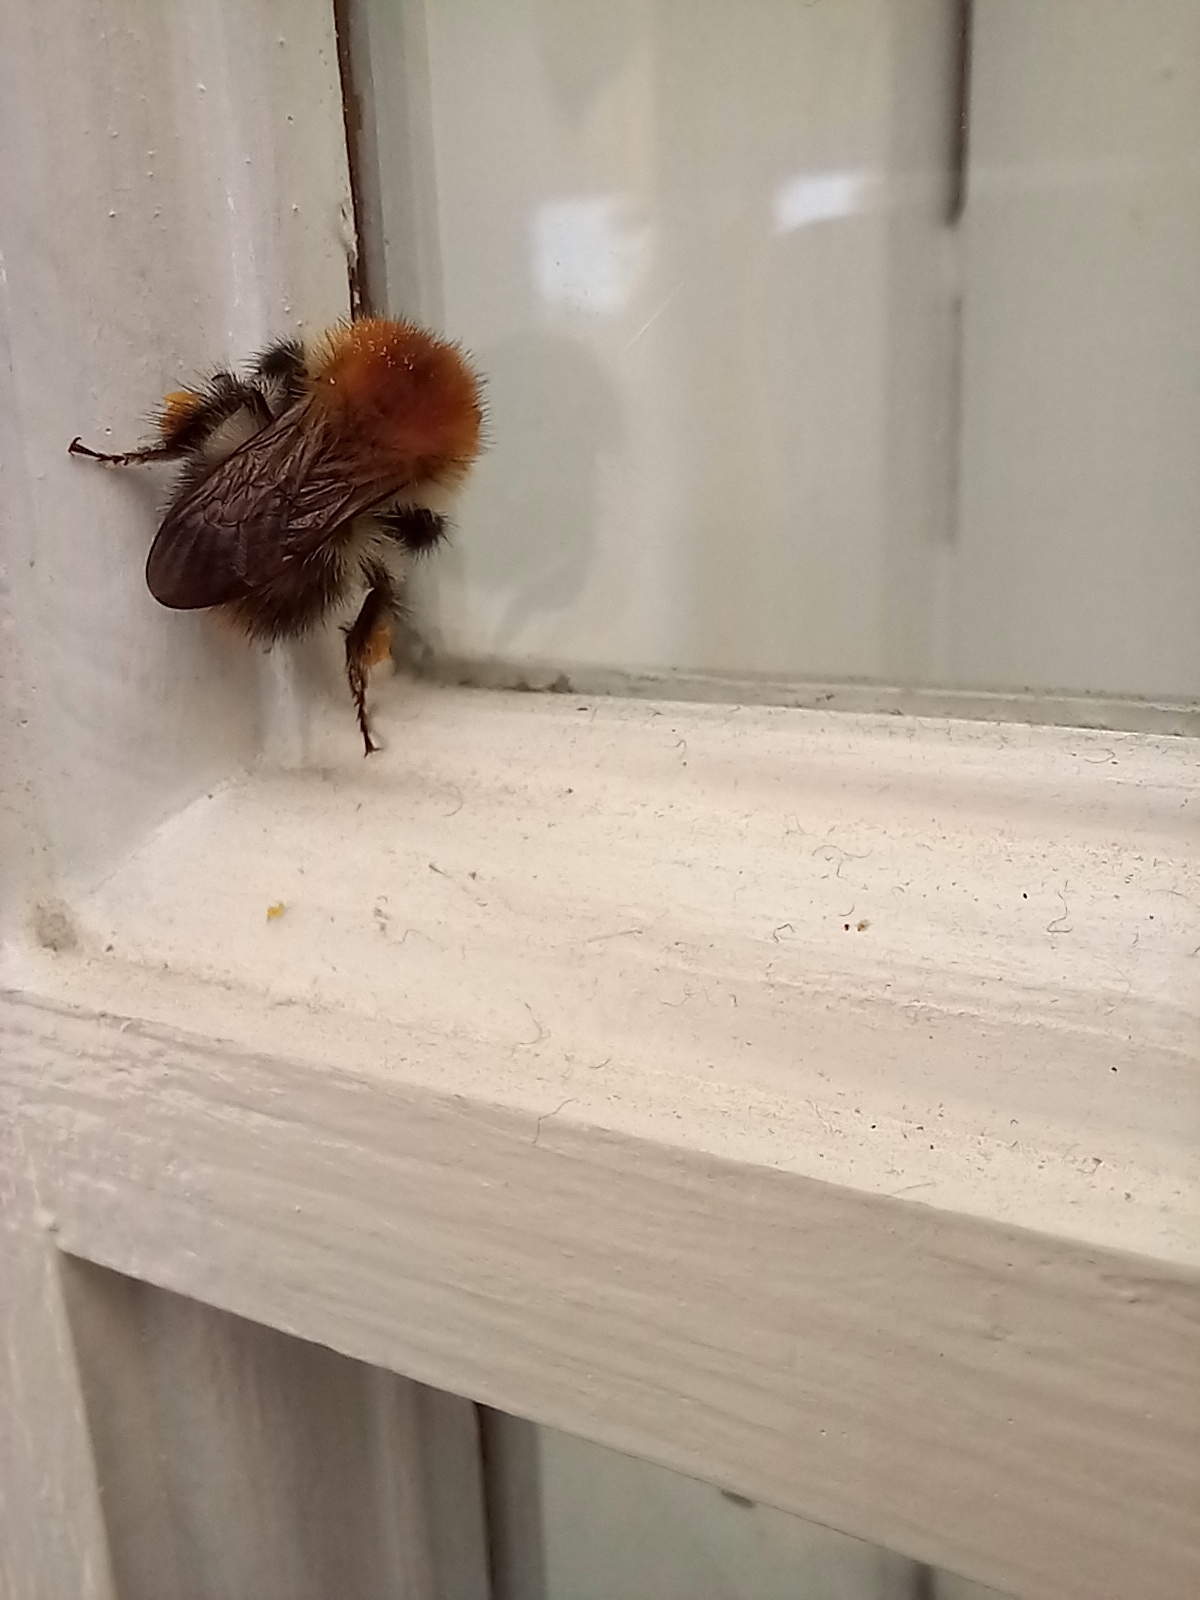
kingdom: Animalia
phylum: Arthropoda
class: Insecta
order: Hymenoptera
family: Apidae
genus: Bombus
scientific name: Bombus pascuorum
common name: Common carder bee
